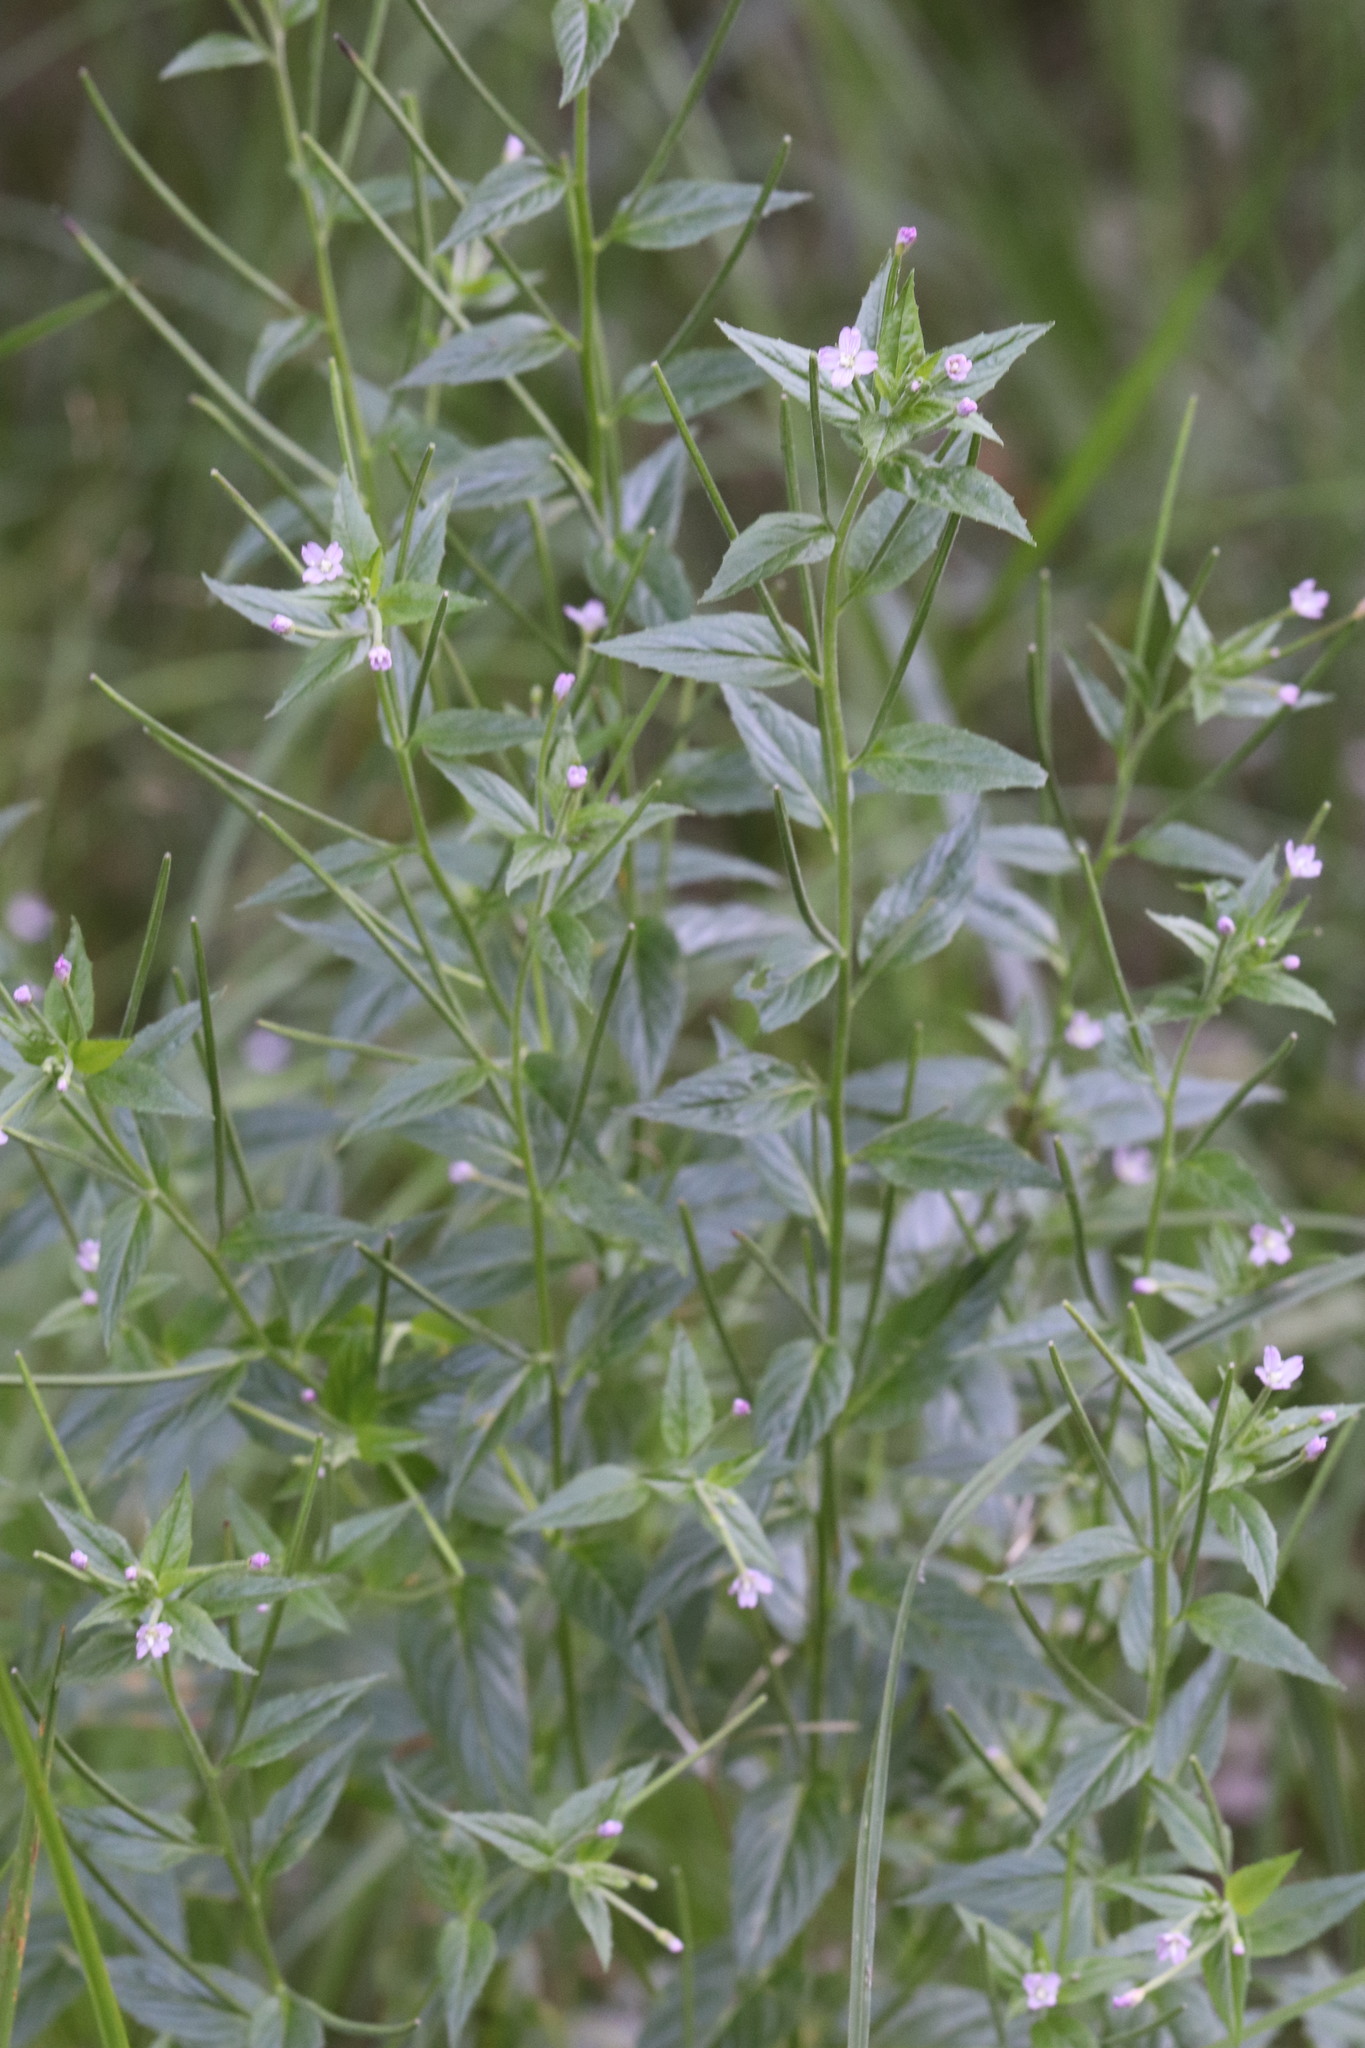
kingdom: Plantae
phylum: Tracheophyta
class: Magnoliopsida
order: Myrtales
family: Onagraceae
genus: Epilobium
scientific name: Epilobium ciliatum
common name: American willowherb
